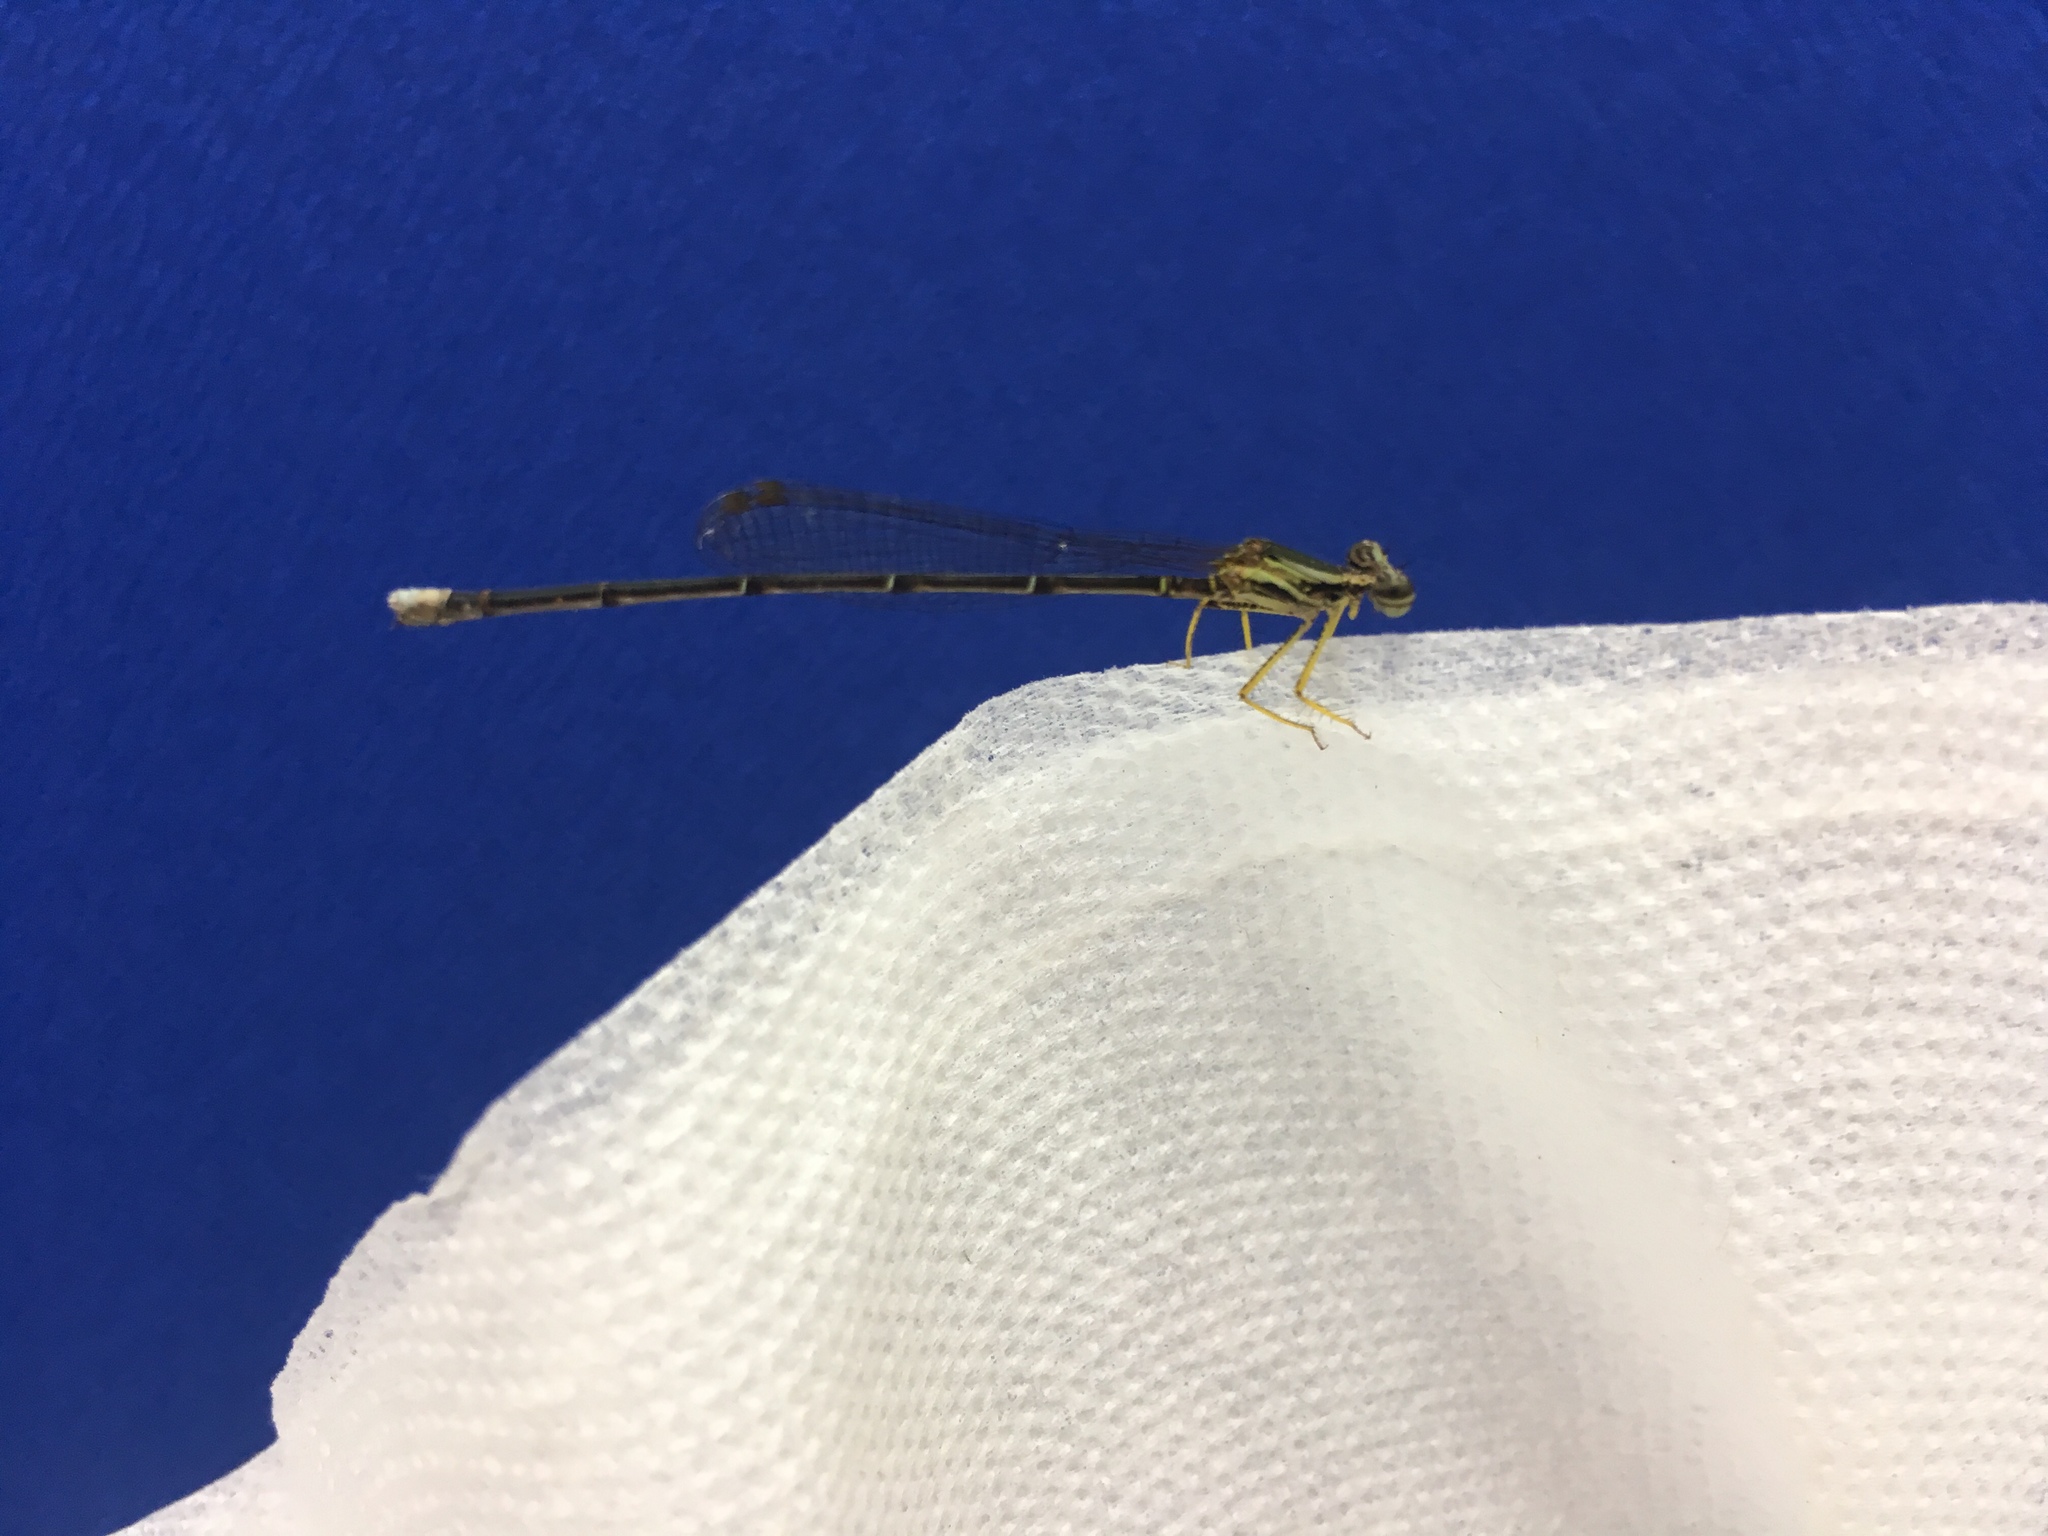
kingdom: Animalia
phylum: Arthropoda
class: Insecta
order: Odonata
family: Platycnemididae
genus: Copera
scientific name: Copera marginipes
